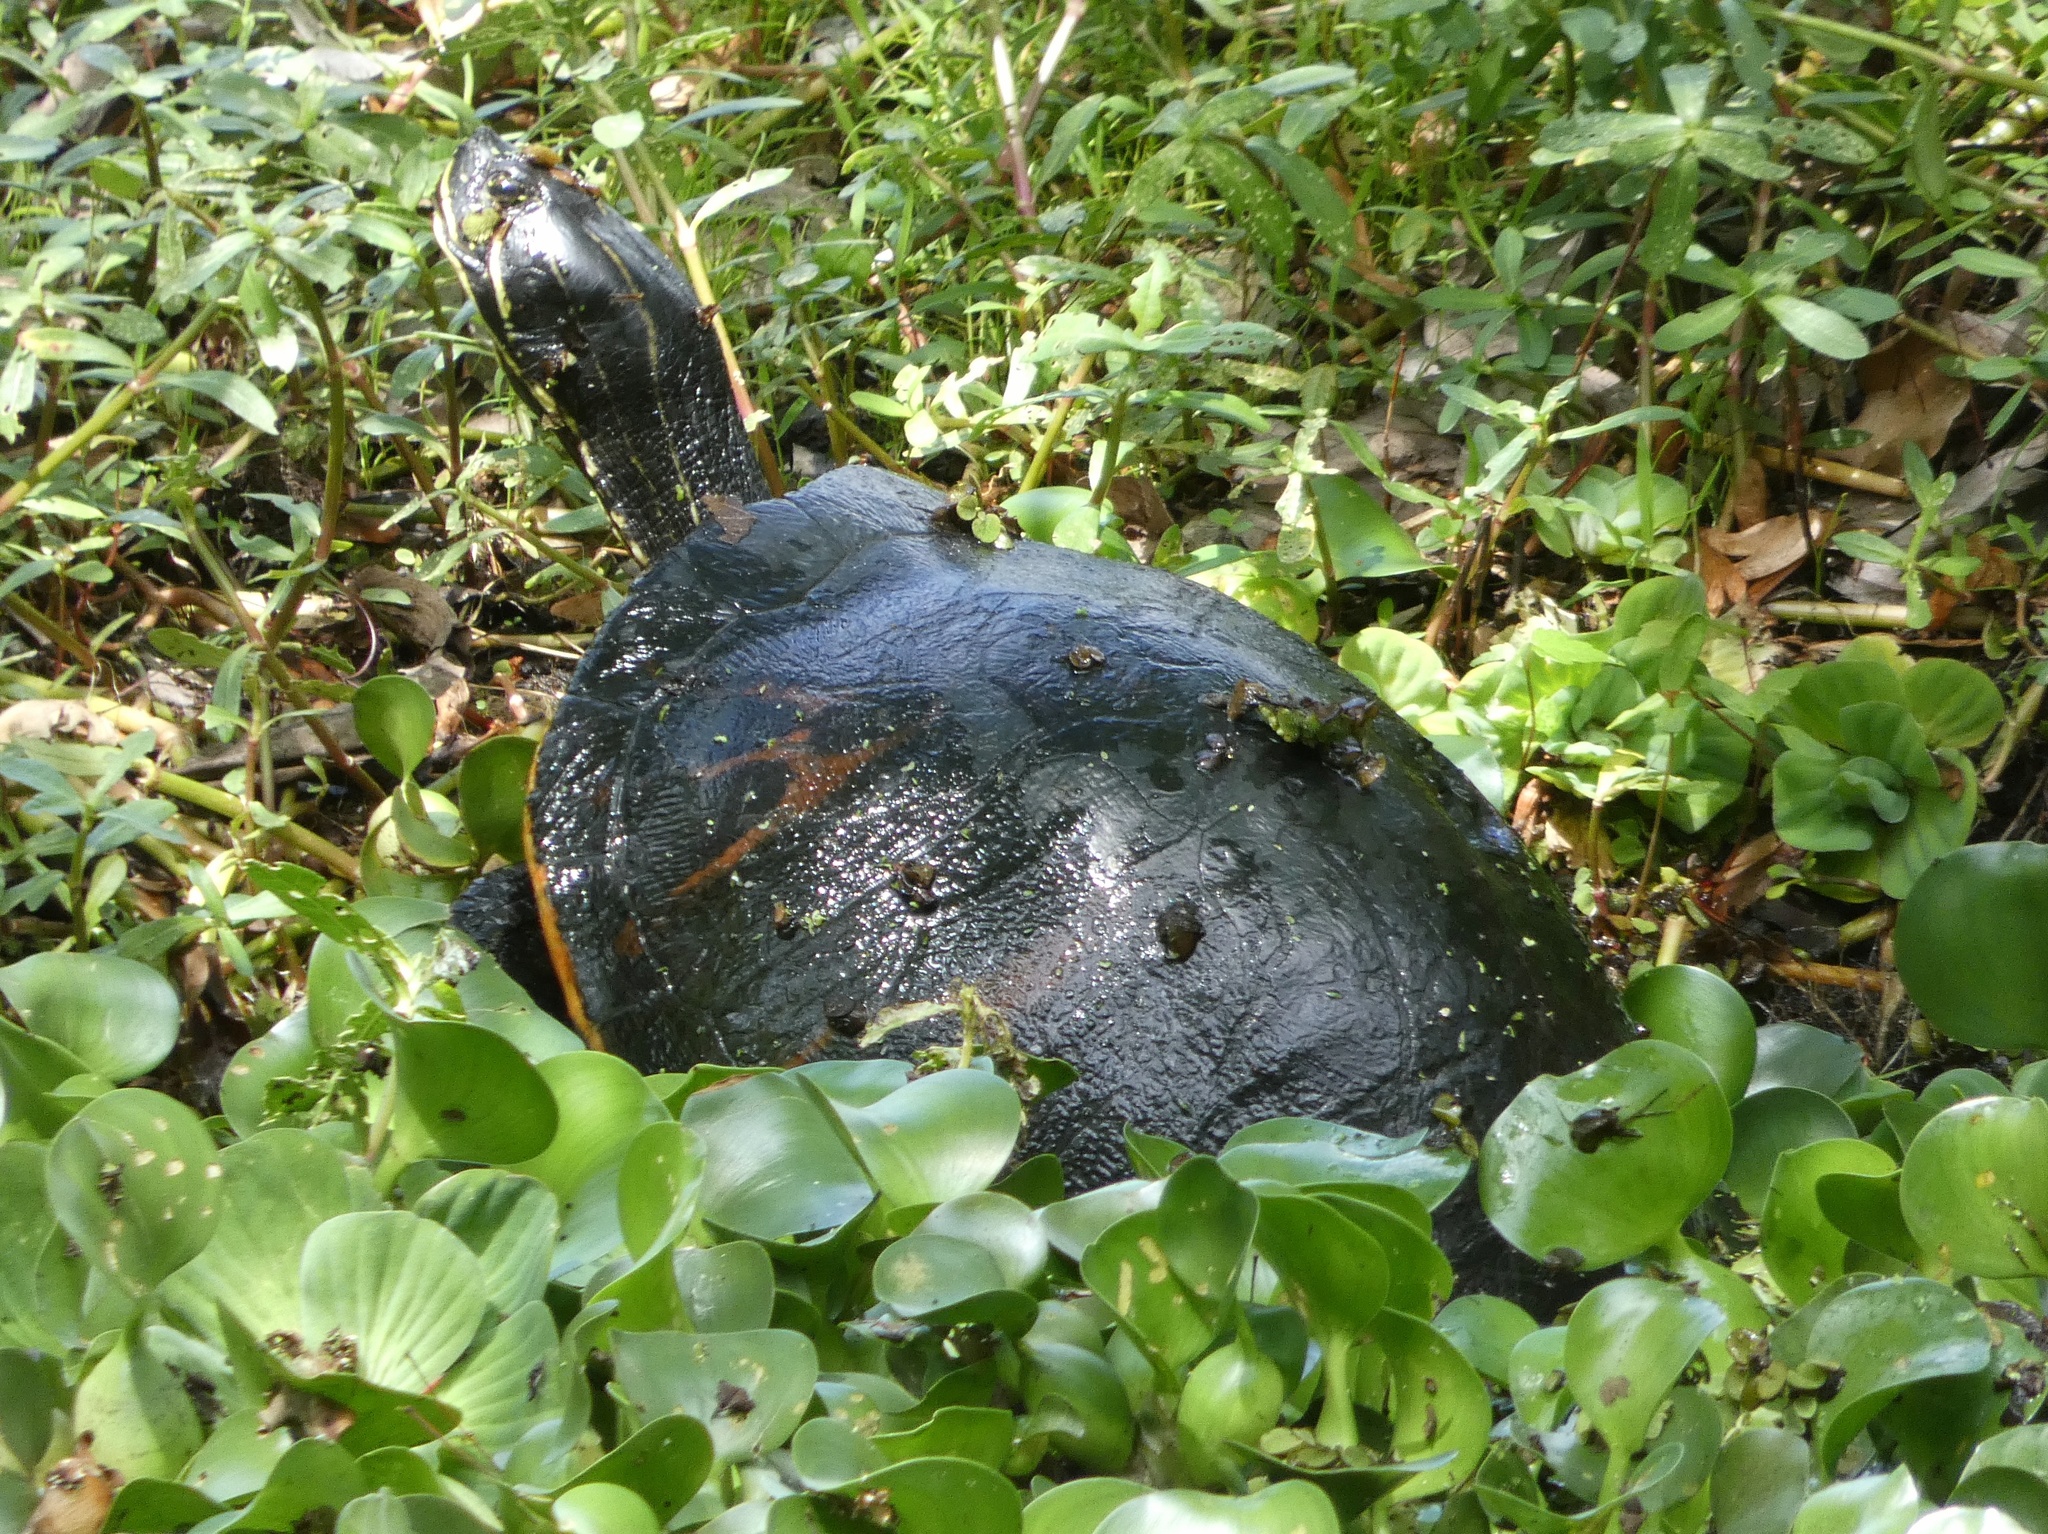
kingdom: Animalia
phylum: Chordata
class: Testudines
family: Emydidae
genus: Pseudemys
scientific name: Pseudemys nelsoni
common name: Florida red-bellied turtle
